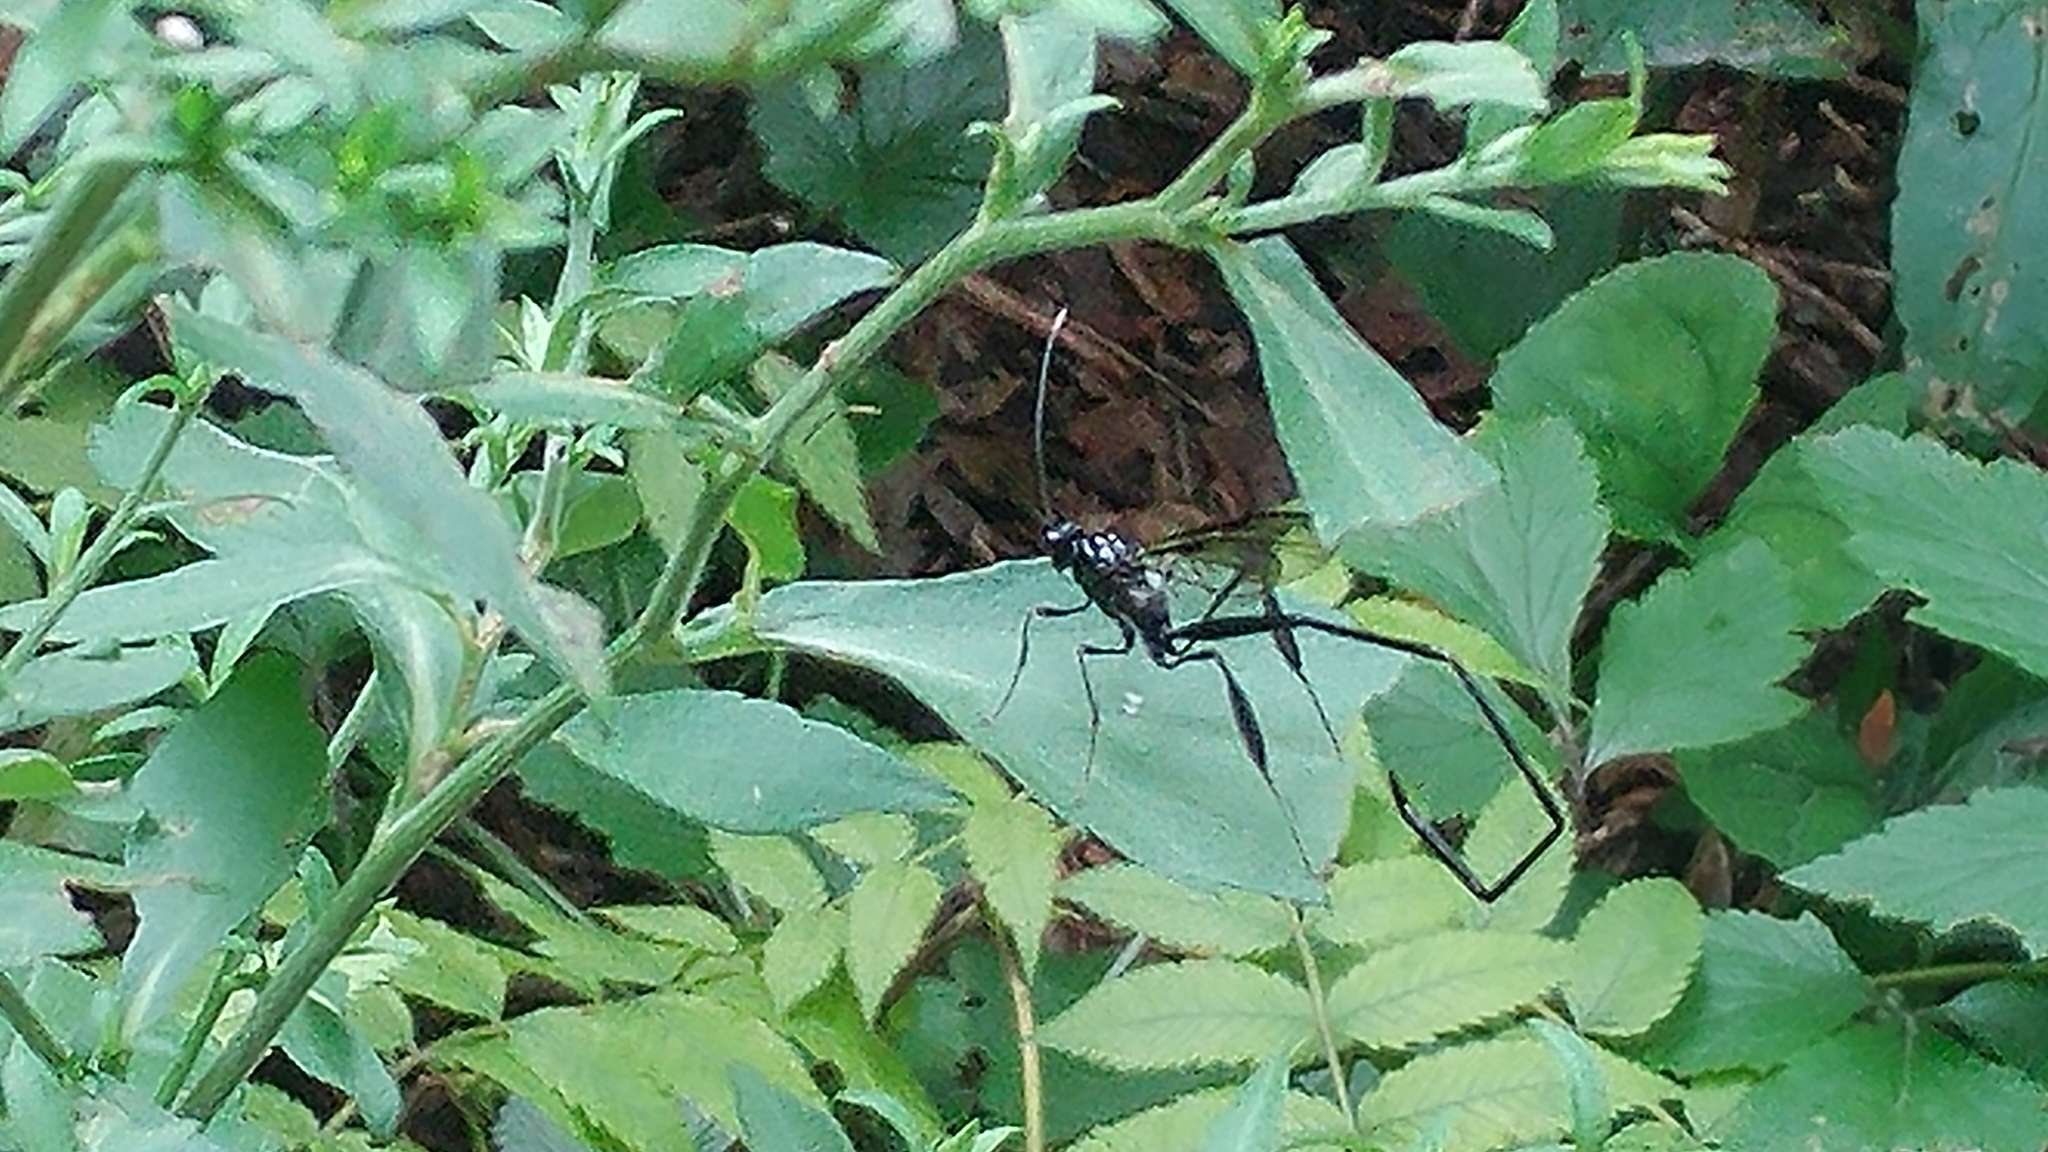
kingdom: Animalia
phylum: Arthropoda
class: Insecta
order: Hymenoptera
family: Pelecinidae
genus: Pelecinus
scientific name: Pelecinus polyturator
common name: American pelecinid wasp
